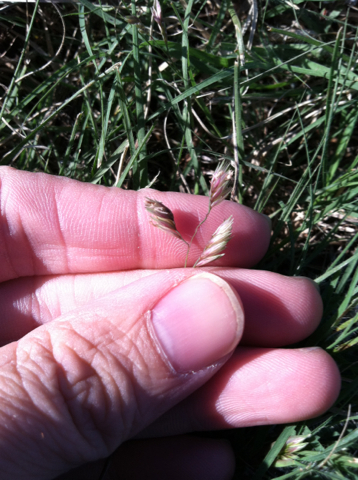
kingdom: Plantae
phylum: Tracheophyta
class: Liliopsida
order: Poales
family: Poaceae
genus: Bouteloua
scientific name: Bouteloua dactyloides
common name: Buffalo grass
